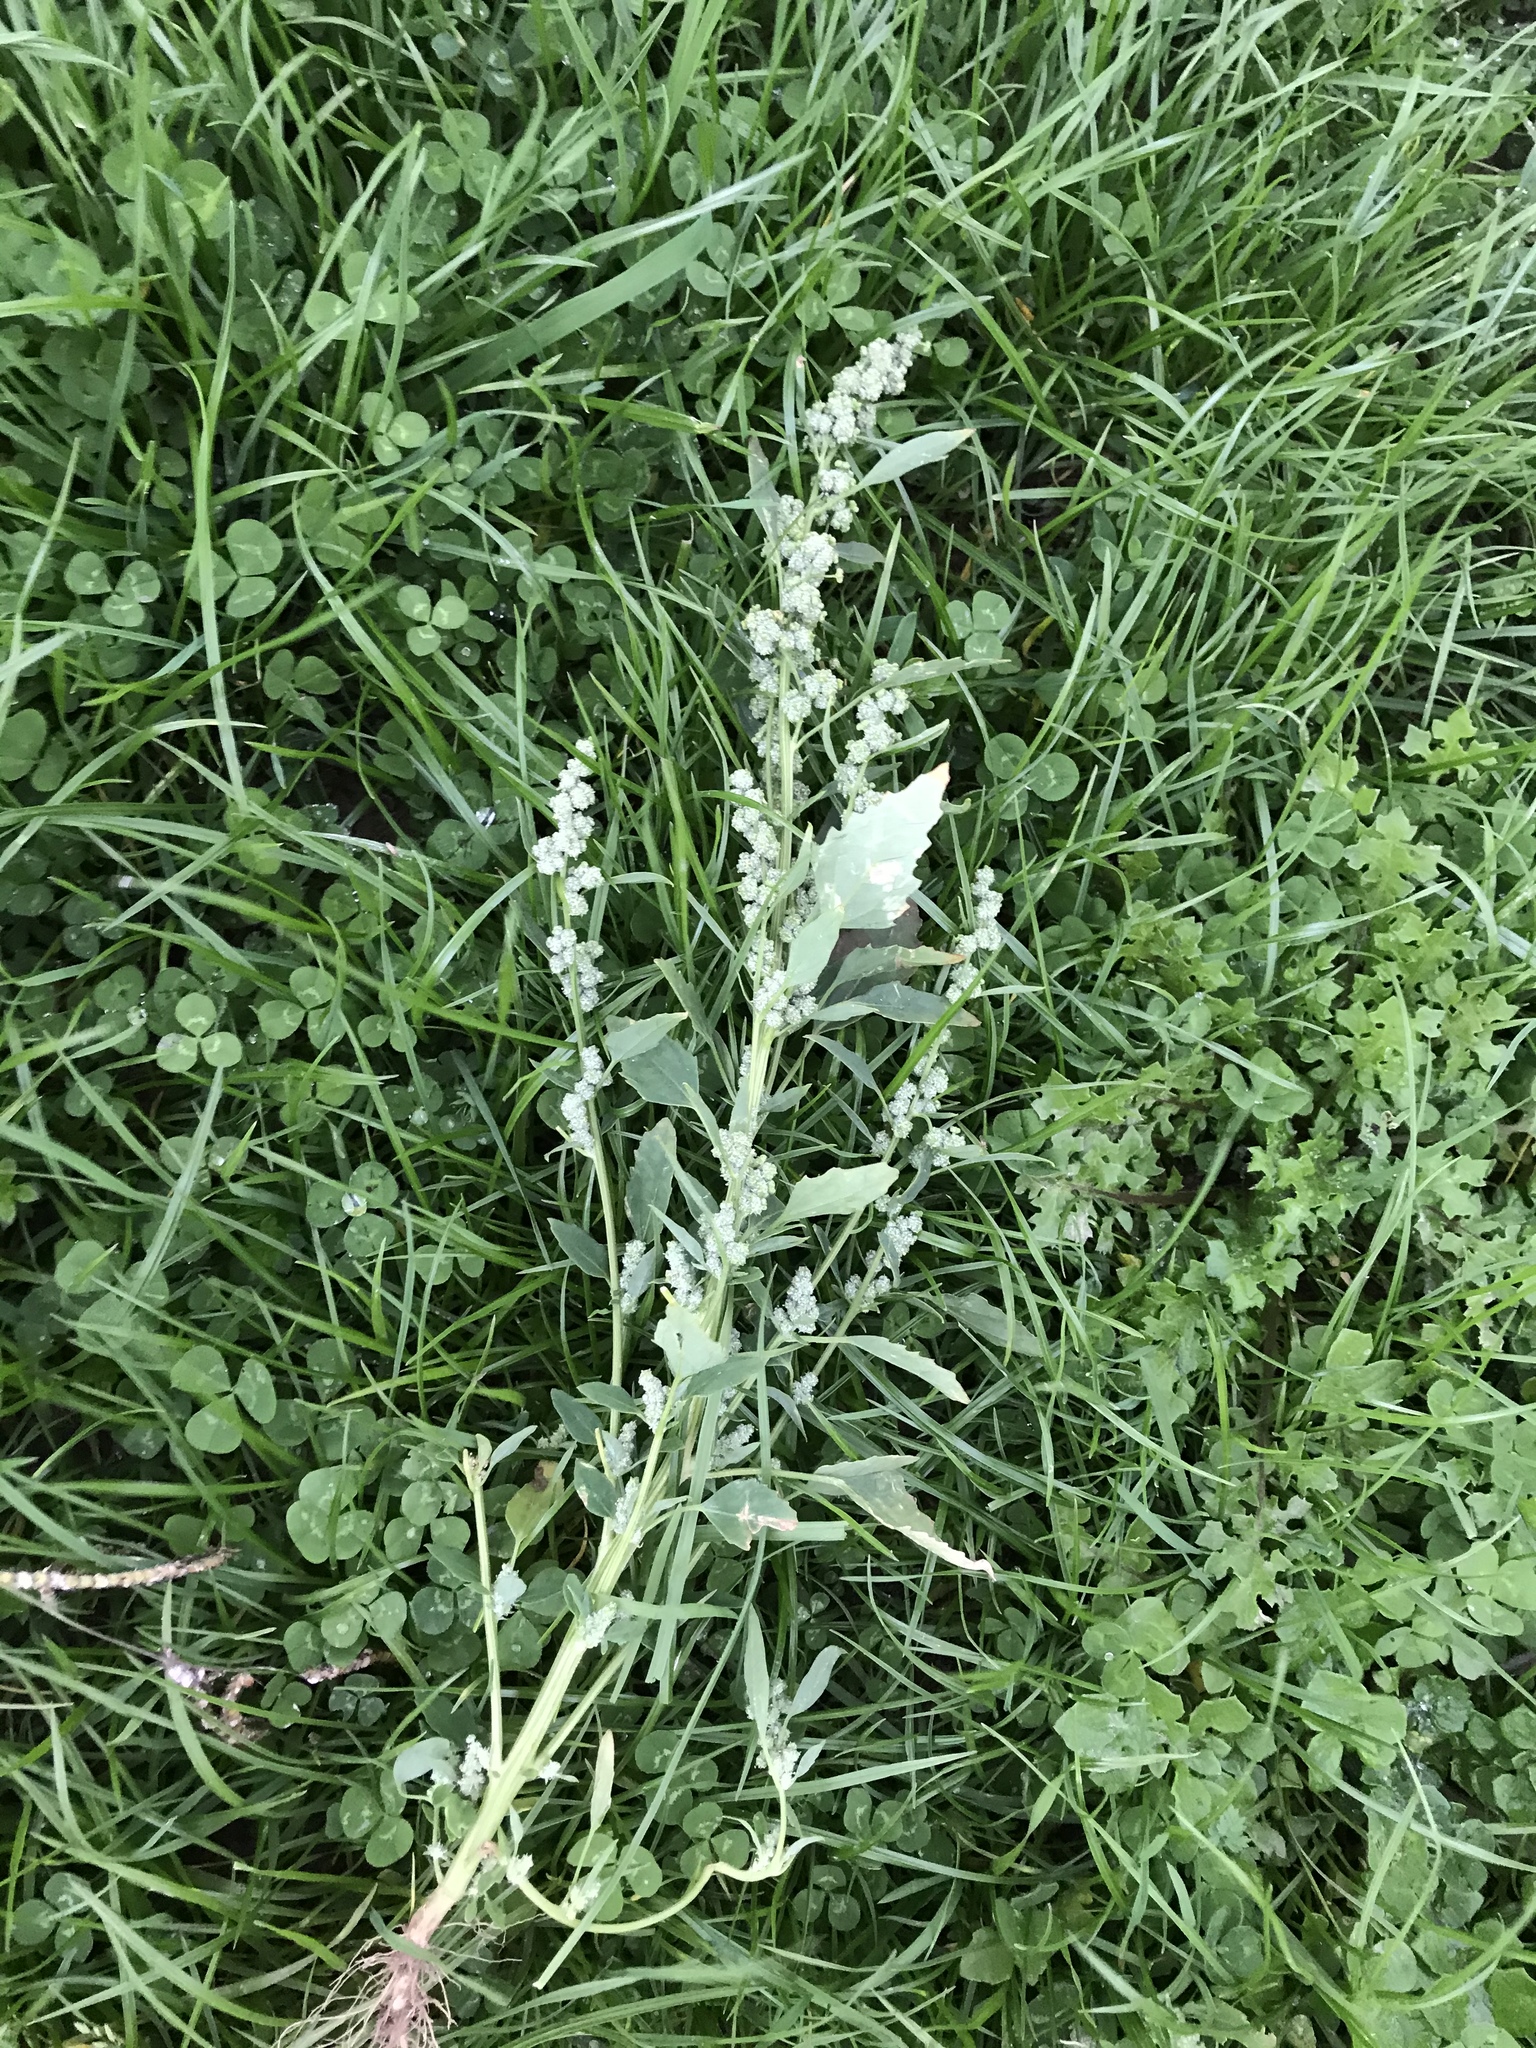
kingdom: Plantae
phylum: Tracheophyta
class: Magnoliopsida
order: Caryophyllales
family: Amaranthaceae
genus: Chenopodium
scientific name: Chenopodium album
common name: Fat-hen
